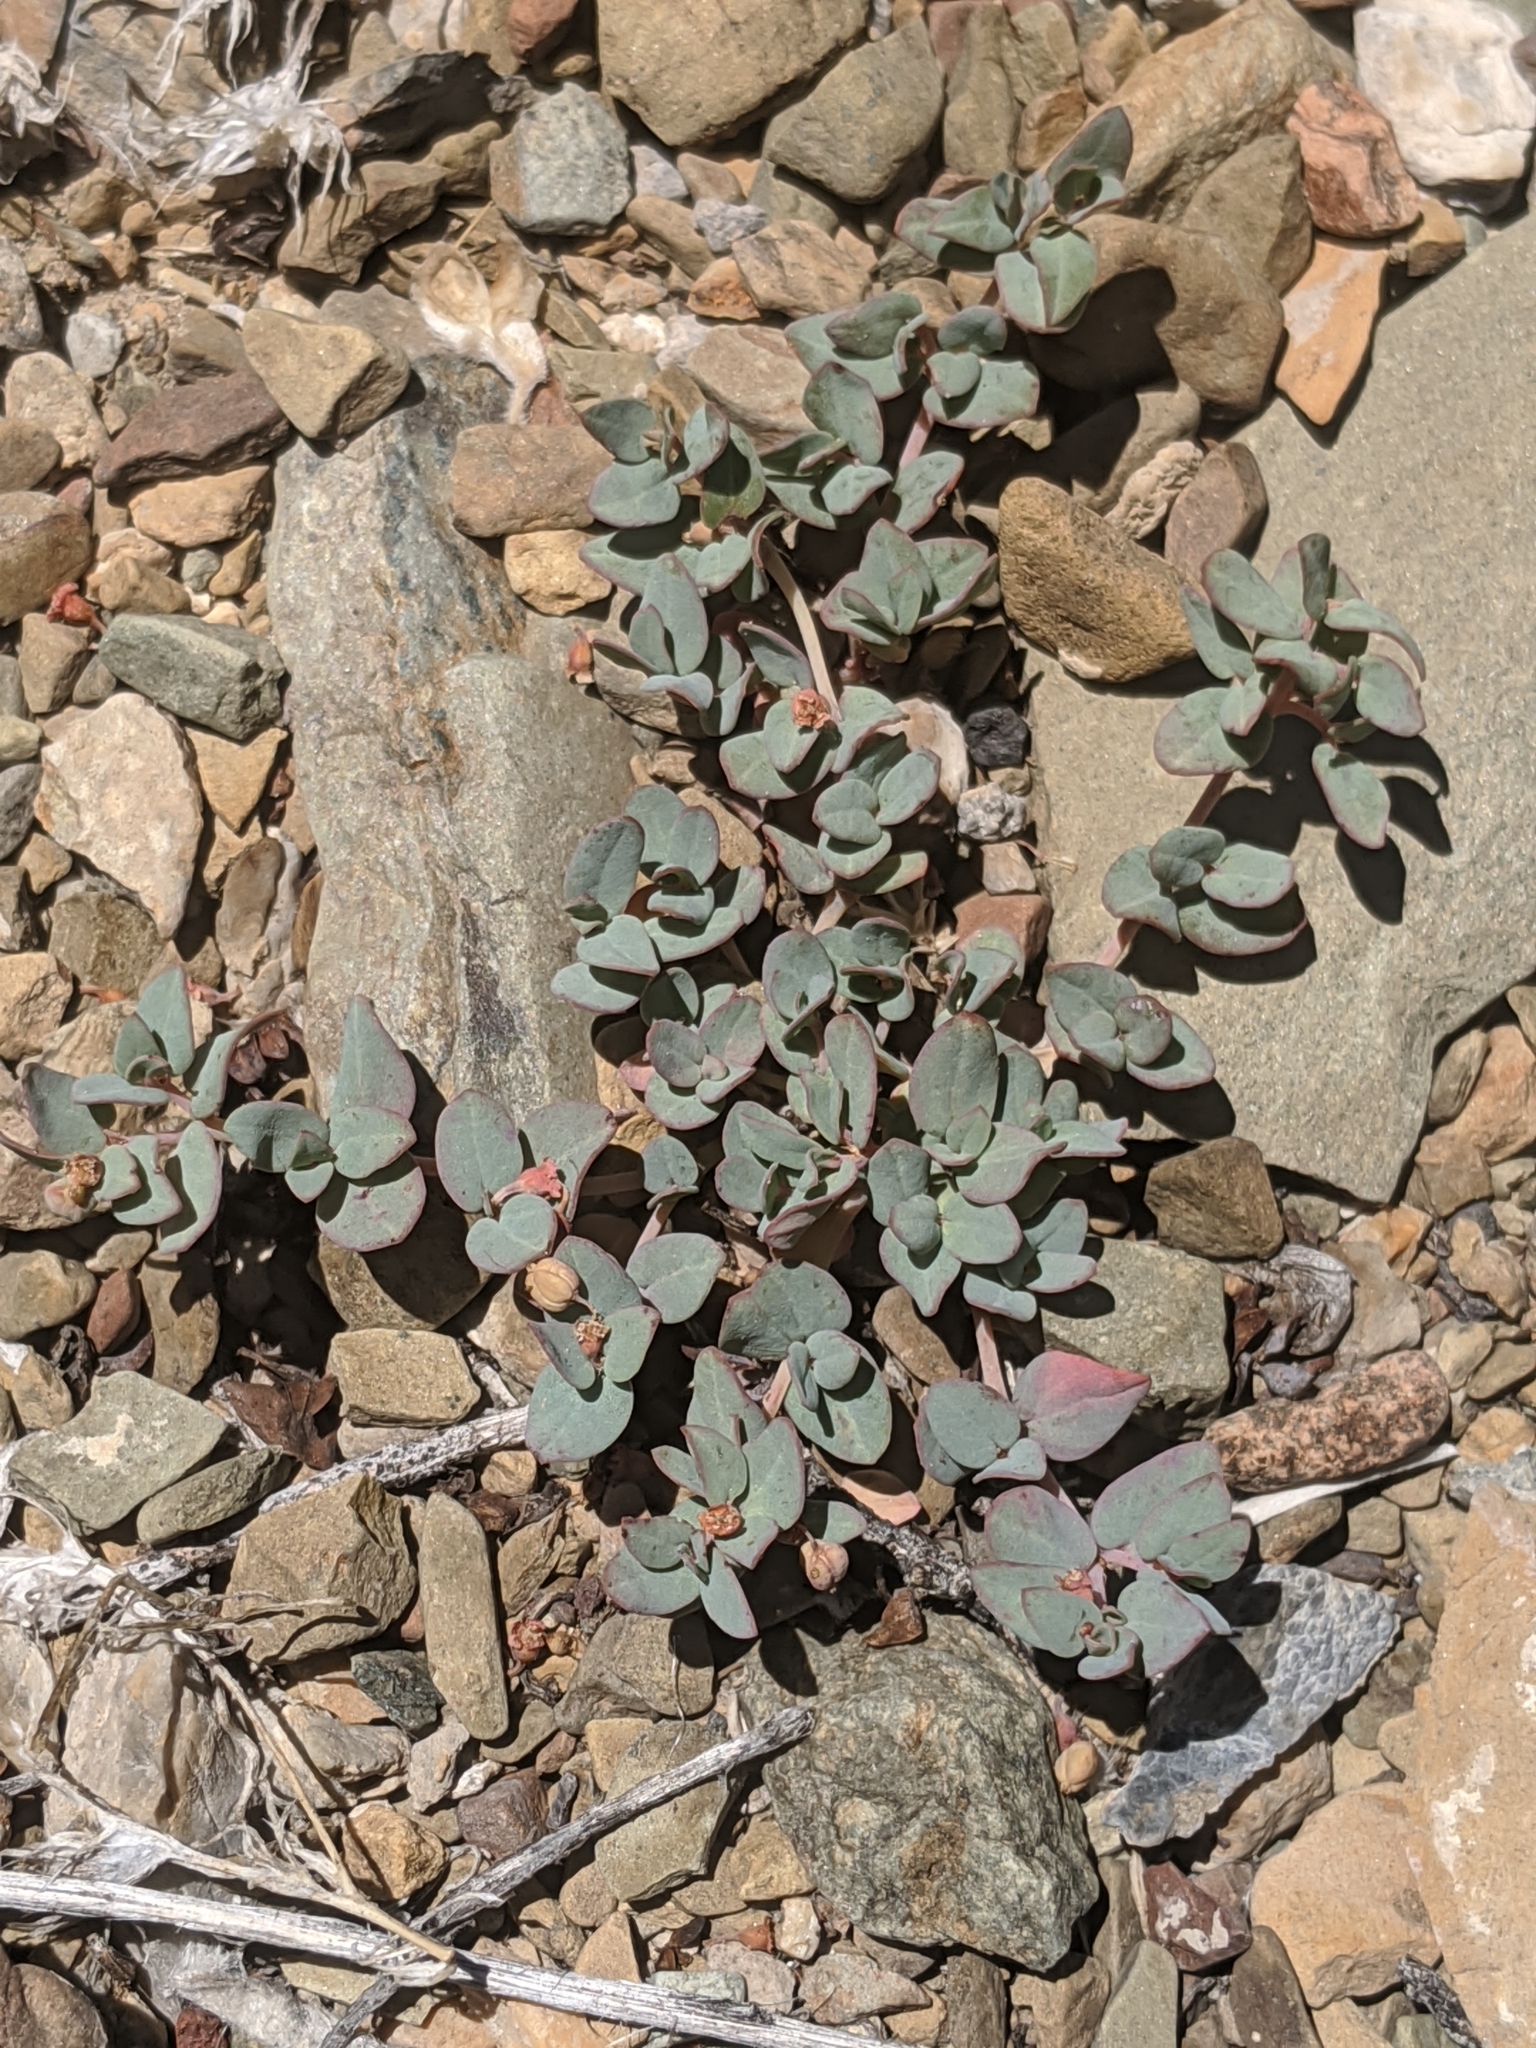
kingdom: Plantae
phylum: Tracheophyta
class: Magnoliopsida
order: Malpighiales
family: Euphorbiaceae
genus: Euphorbia
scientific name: Euphorbia fendleri
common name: Fendler's euphorbia
